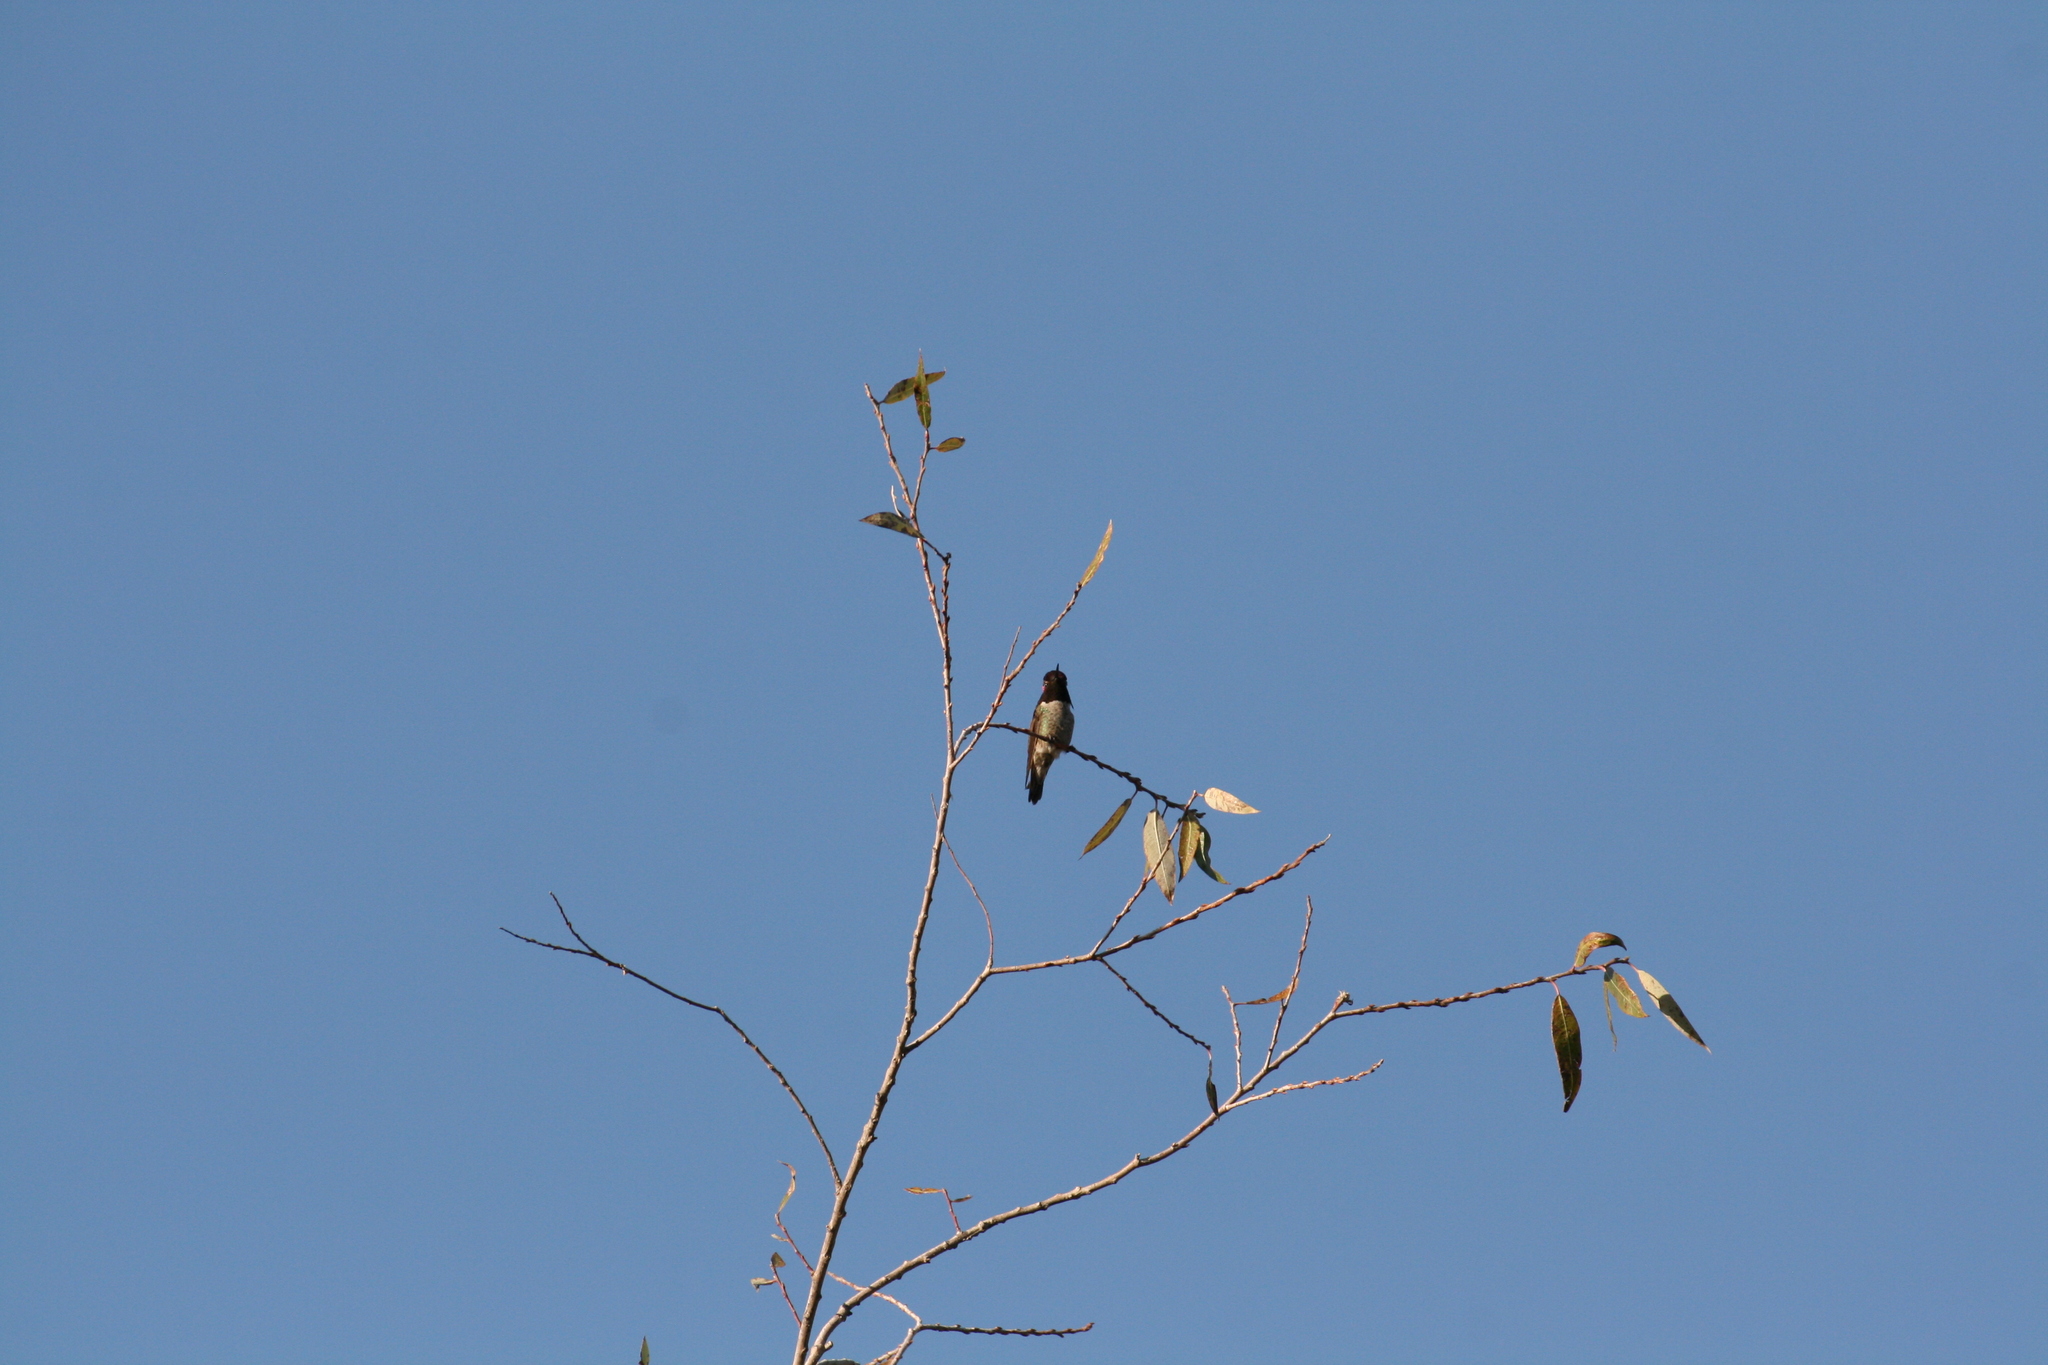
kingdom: Animalia
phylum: Chordata
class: Aves
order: Apodiformes
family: Trochilidae
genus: Calypte
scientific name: Calypte anna
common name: Anna's hummingbird
